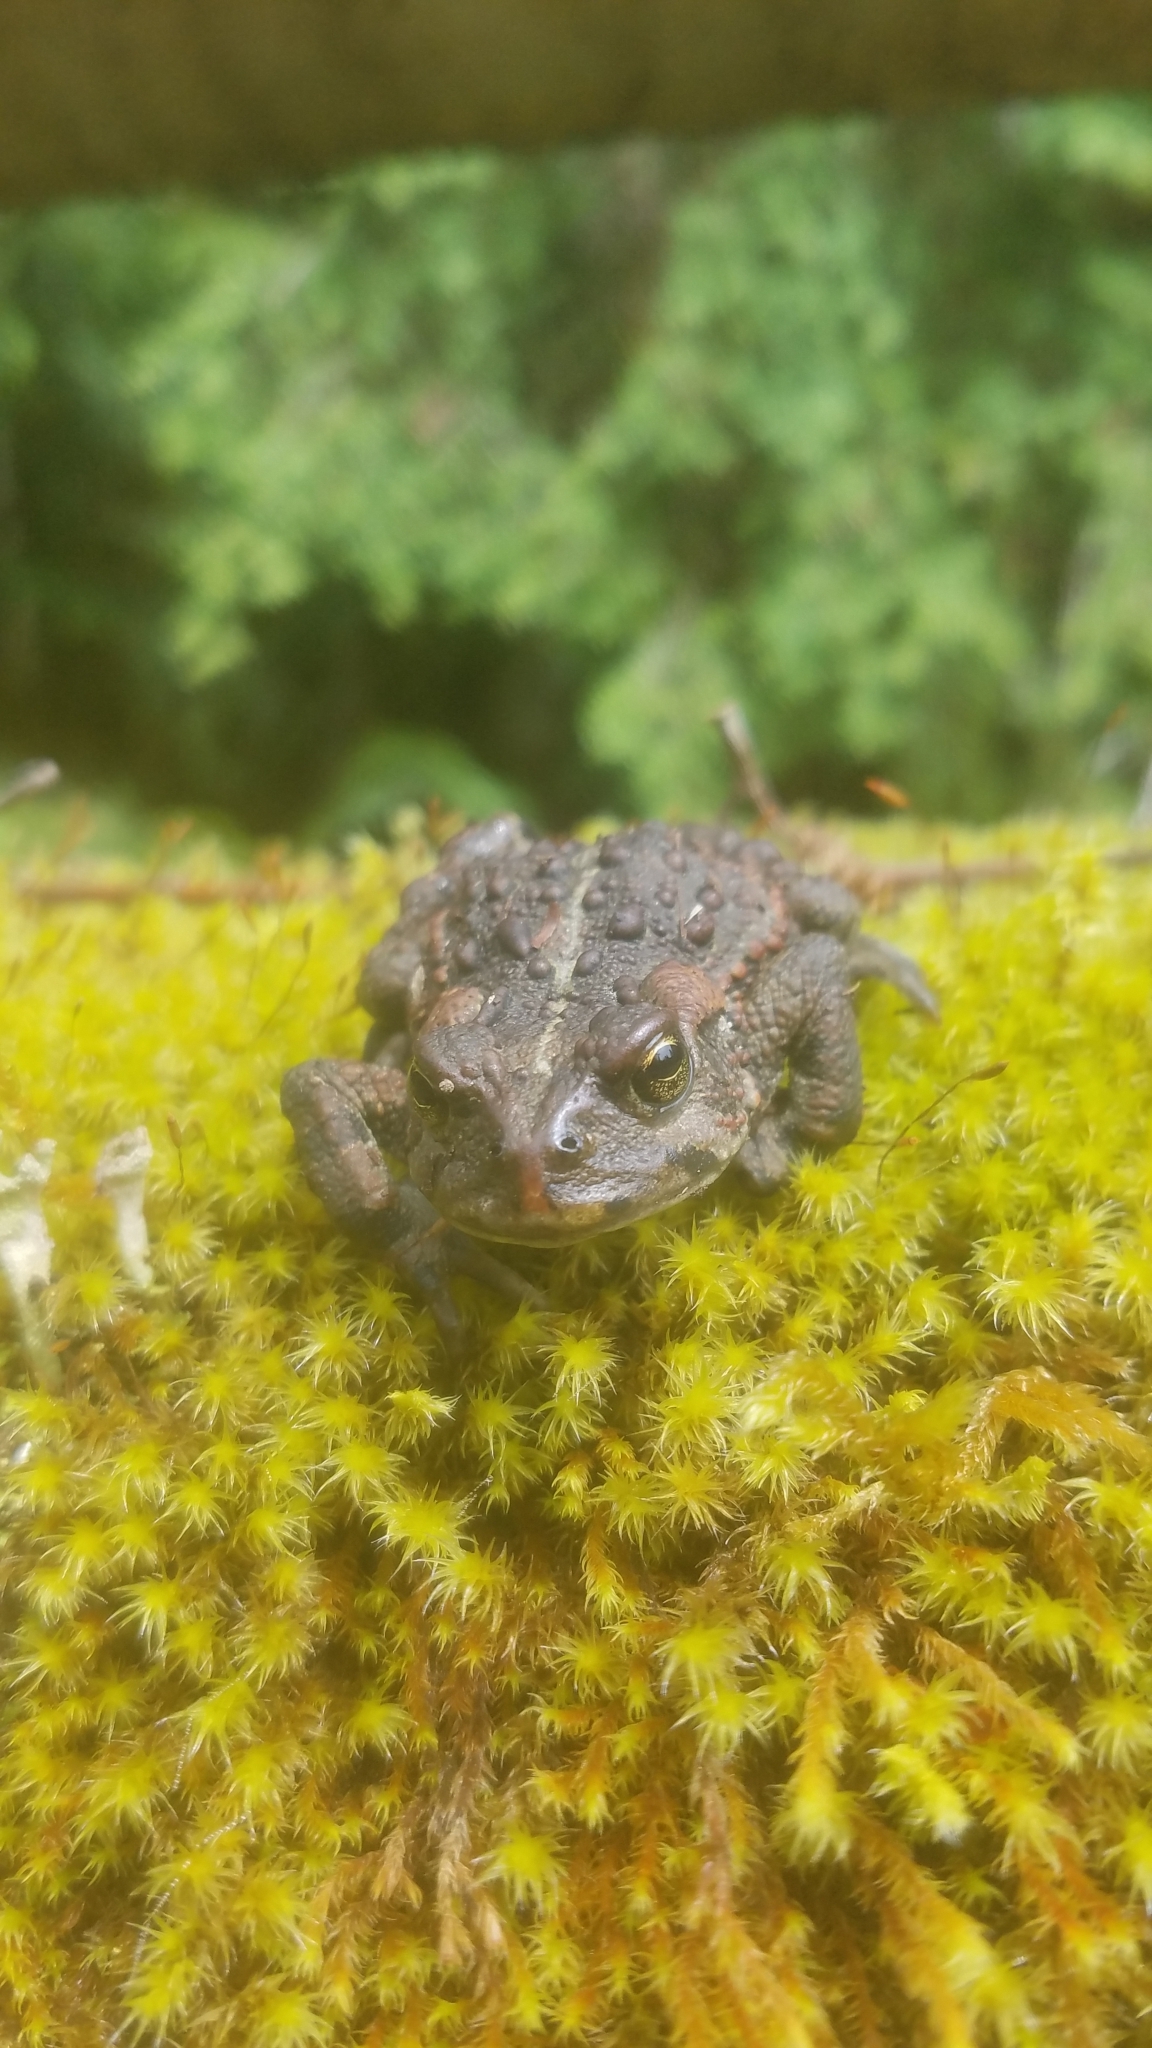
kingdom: Animalia
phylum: Chordata
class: Amphibia
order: Anura
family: Bufonidae
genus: Anaxyrus
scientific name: Anaxyrus boreas
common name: Western toad
